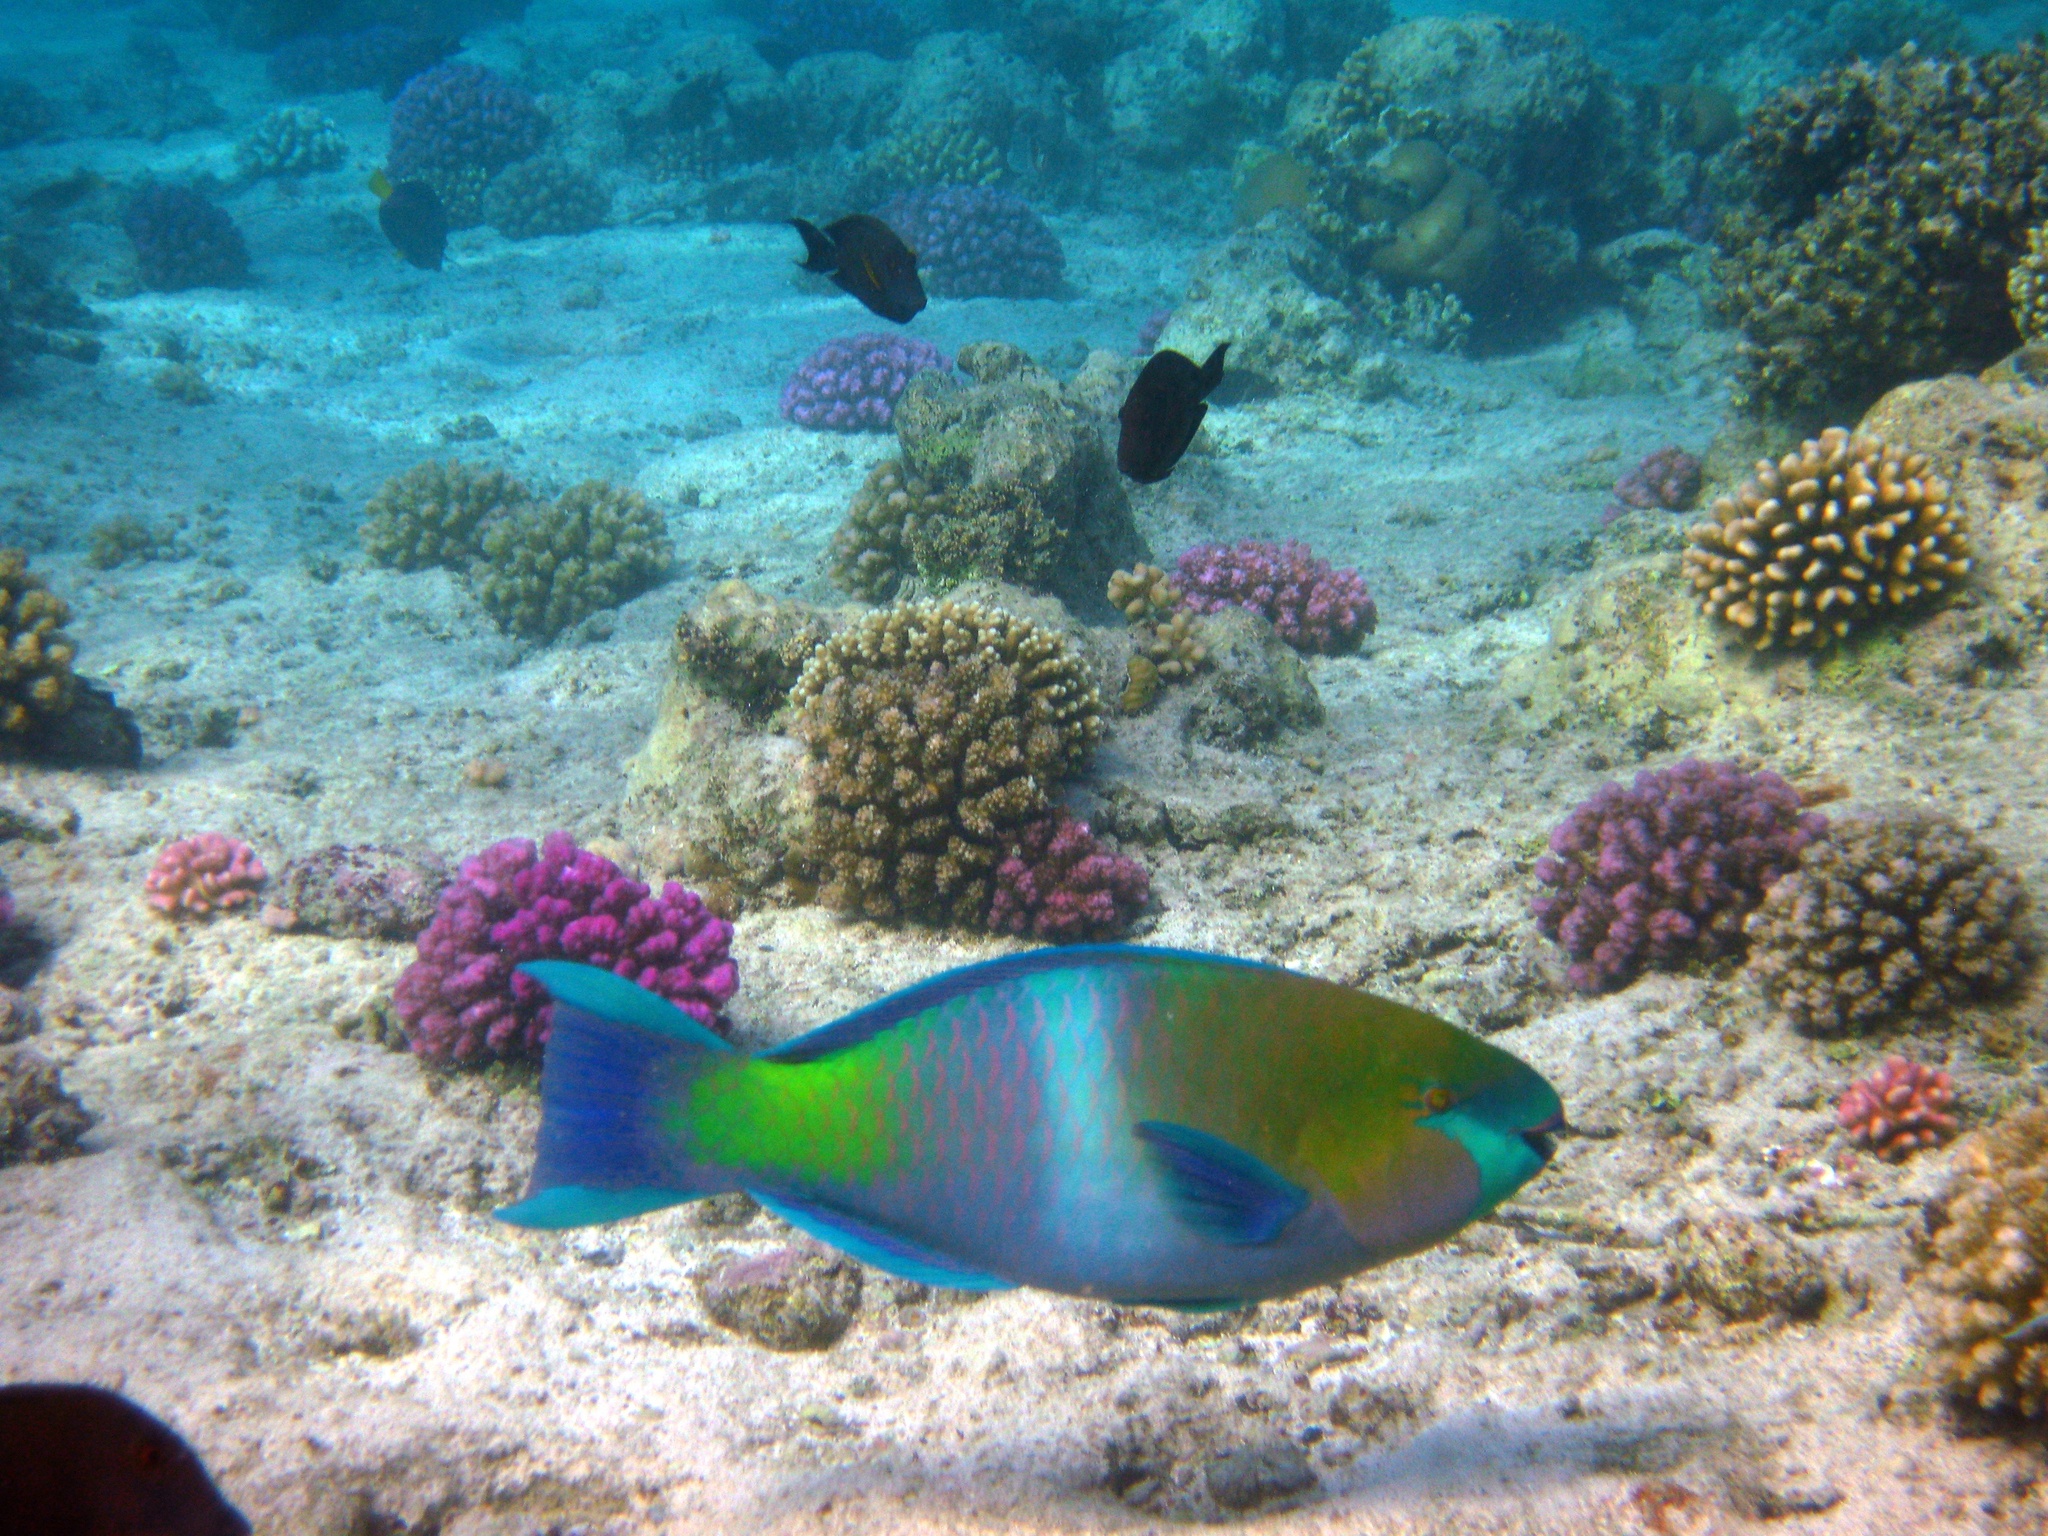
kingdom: Animalia
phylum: Chordata
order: Perciformes
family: Scaridae
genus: Scarus
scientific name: Scarus ferrugineus
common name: Rusty parrotfish
